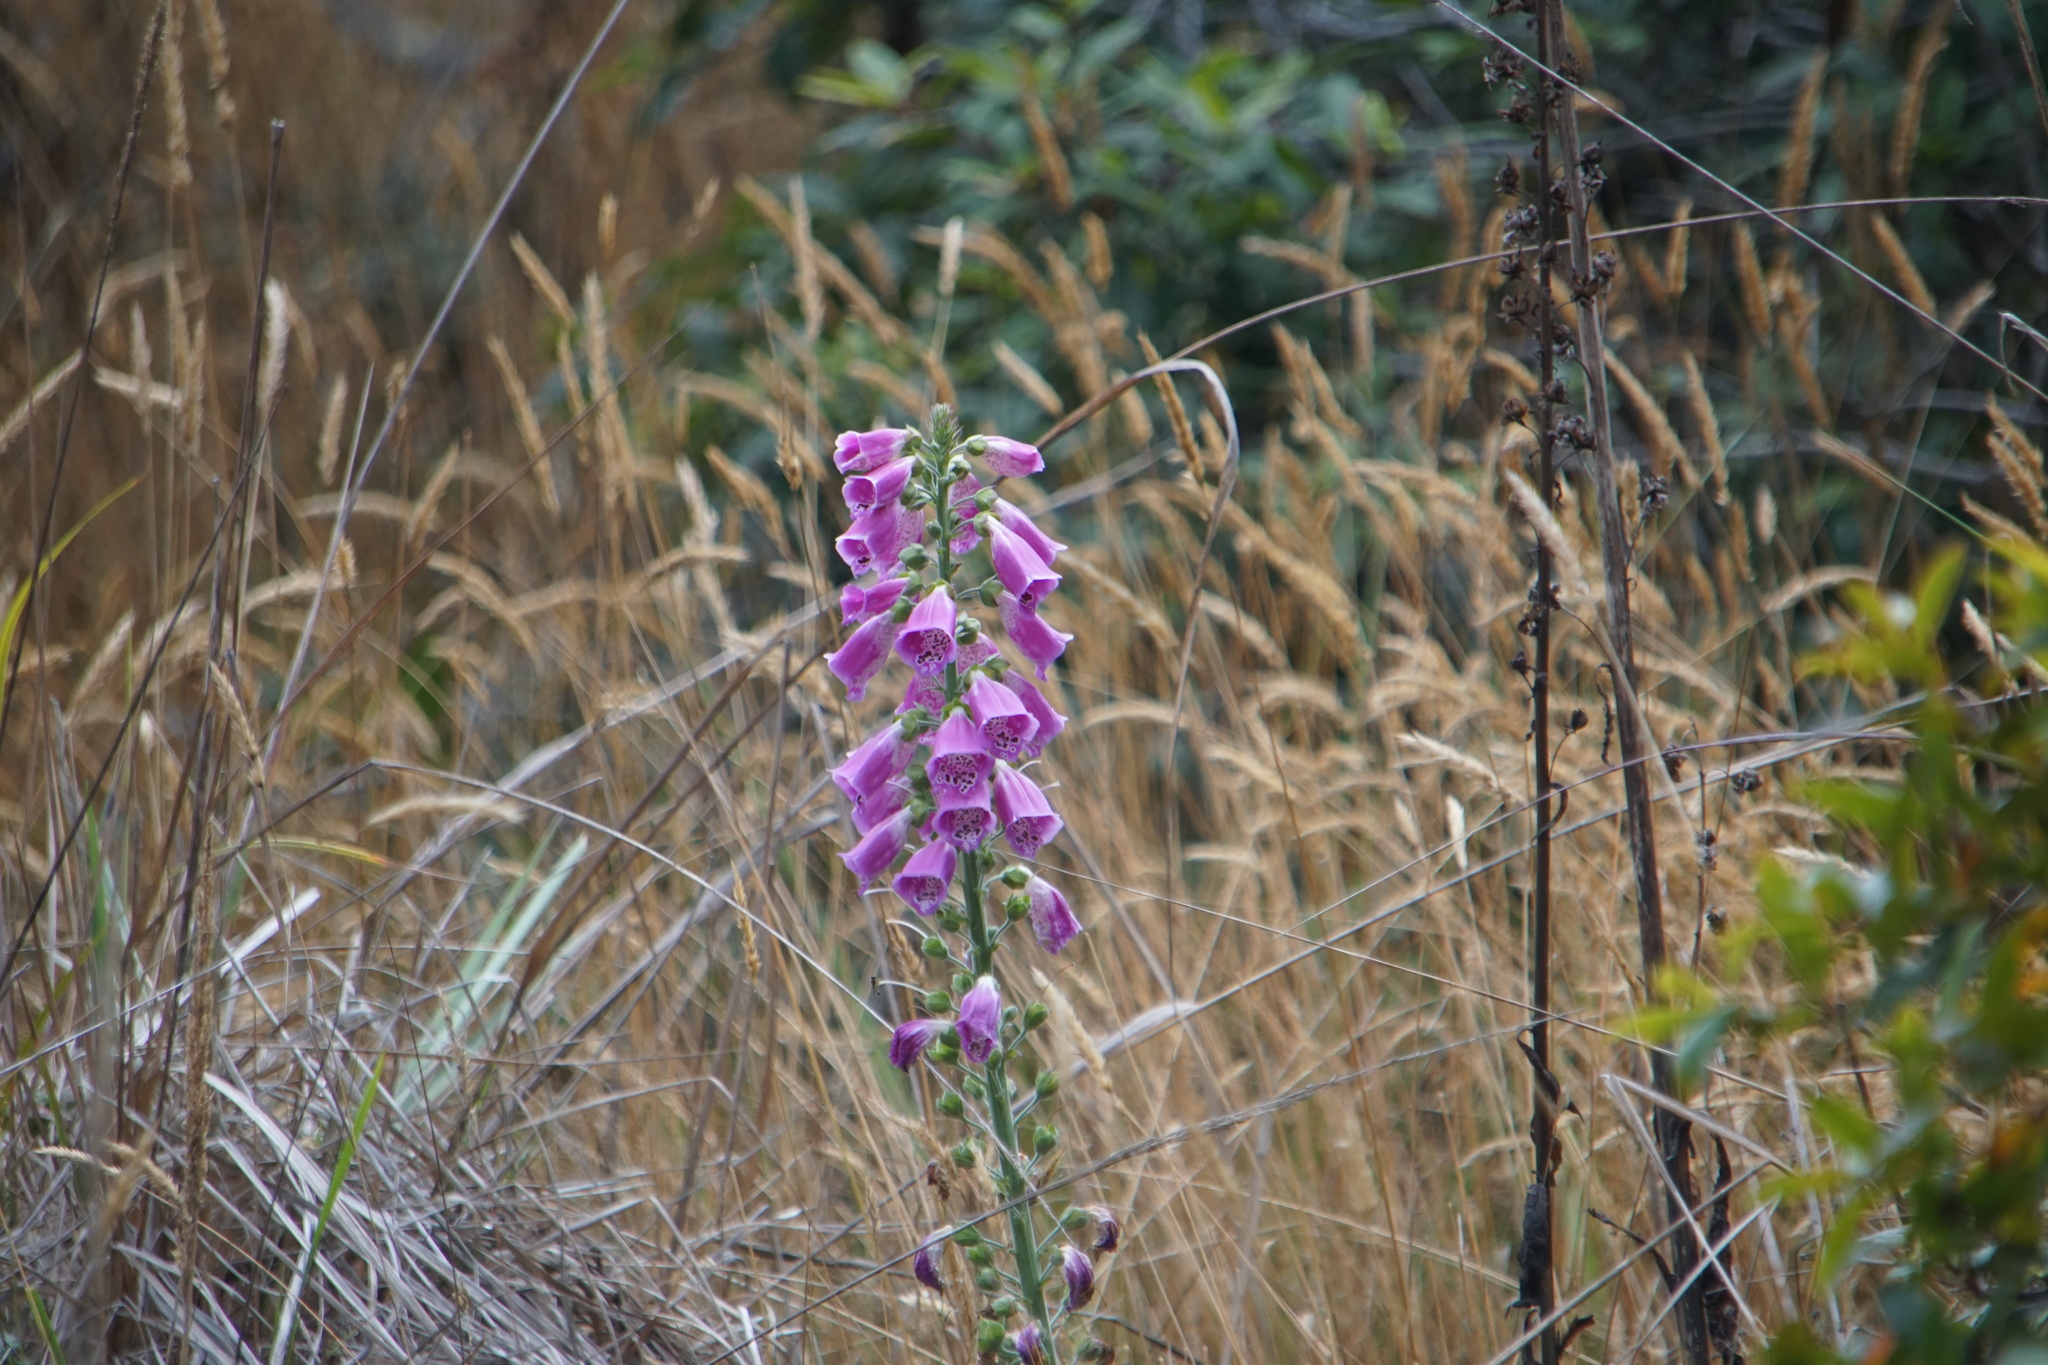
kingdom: Plantae
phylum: Tracheophyta
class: Magnoliopsida
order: Lamiales
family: Plantaginaceae
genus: Digitalis
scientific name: Digitalis purpurea
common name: Foxglove
